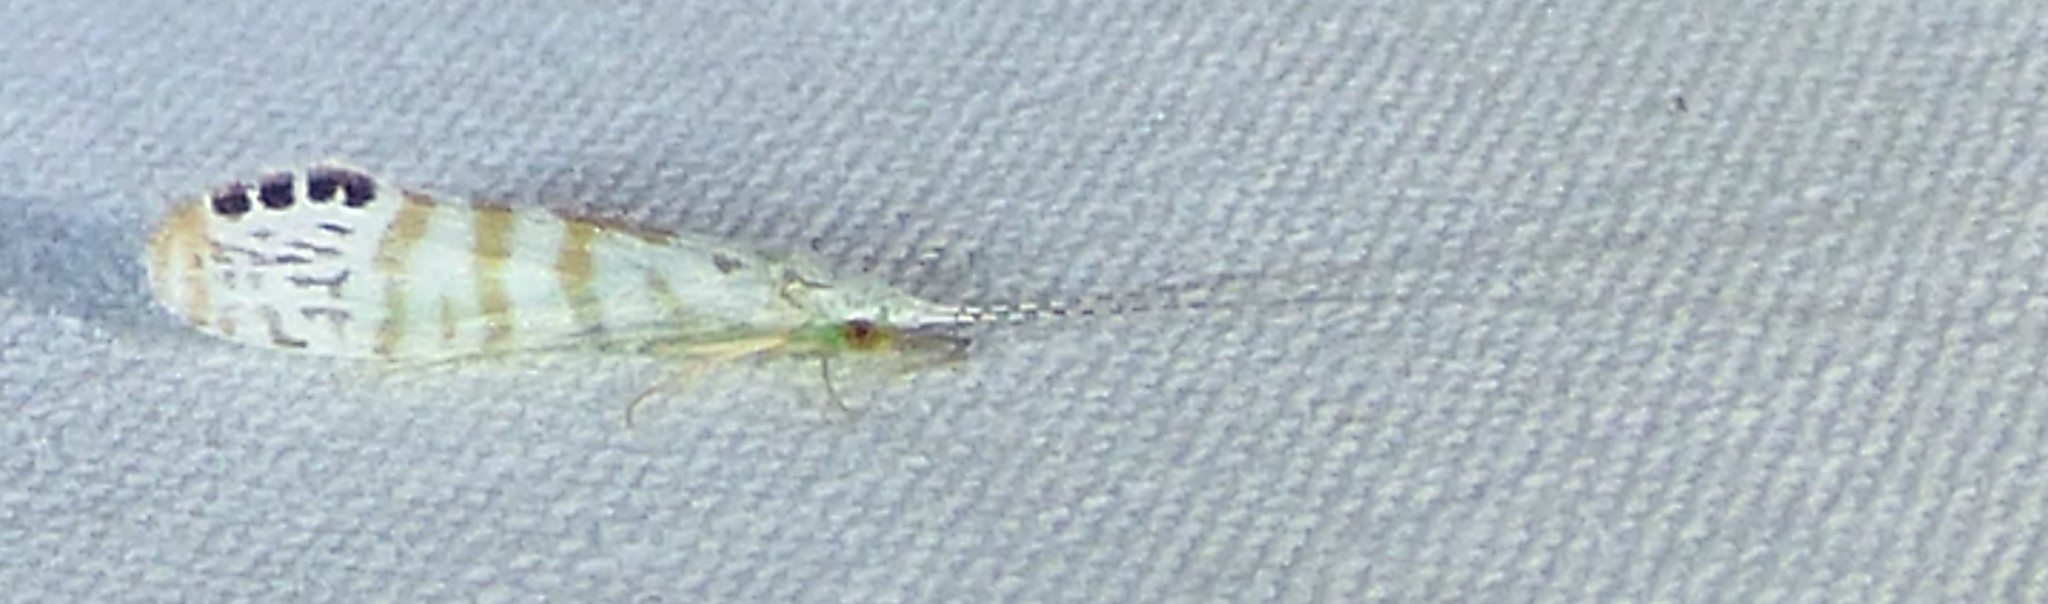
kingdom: Animalia
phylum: Arthropoda
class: Insecta
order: Trichoptera
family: Leptoceridae
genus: Nectopsyche
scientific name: Nectopsyche exquisita
